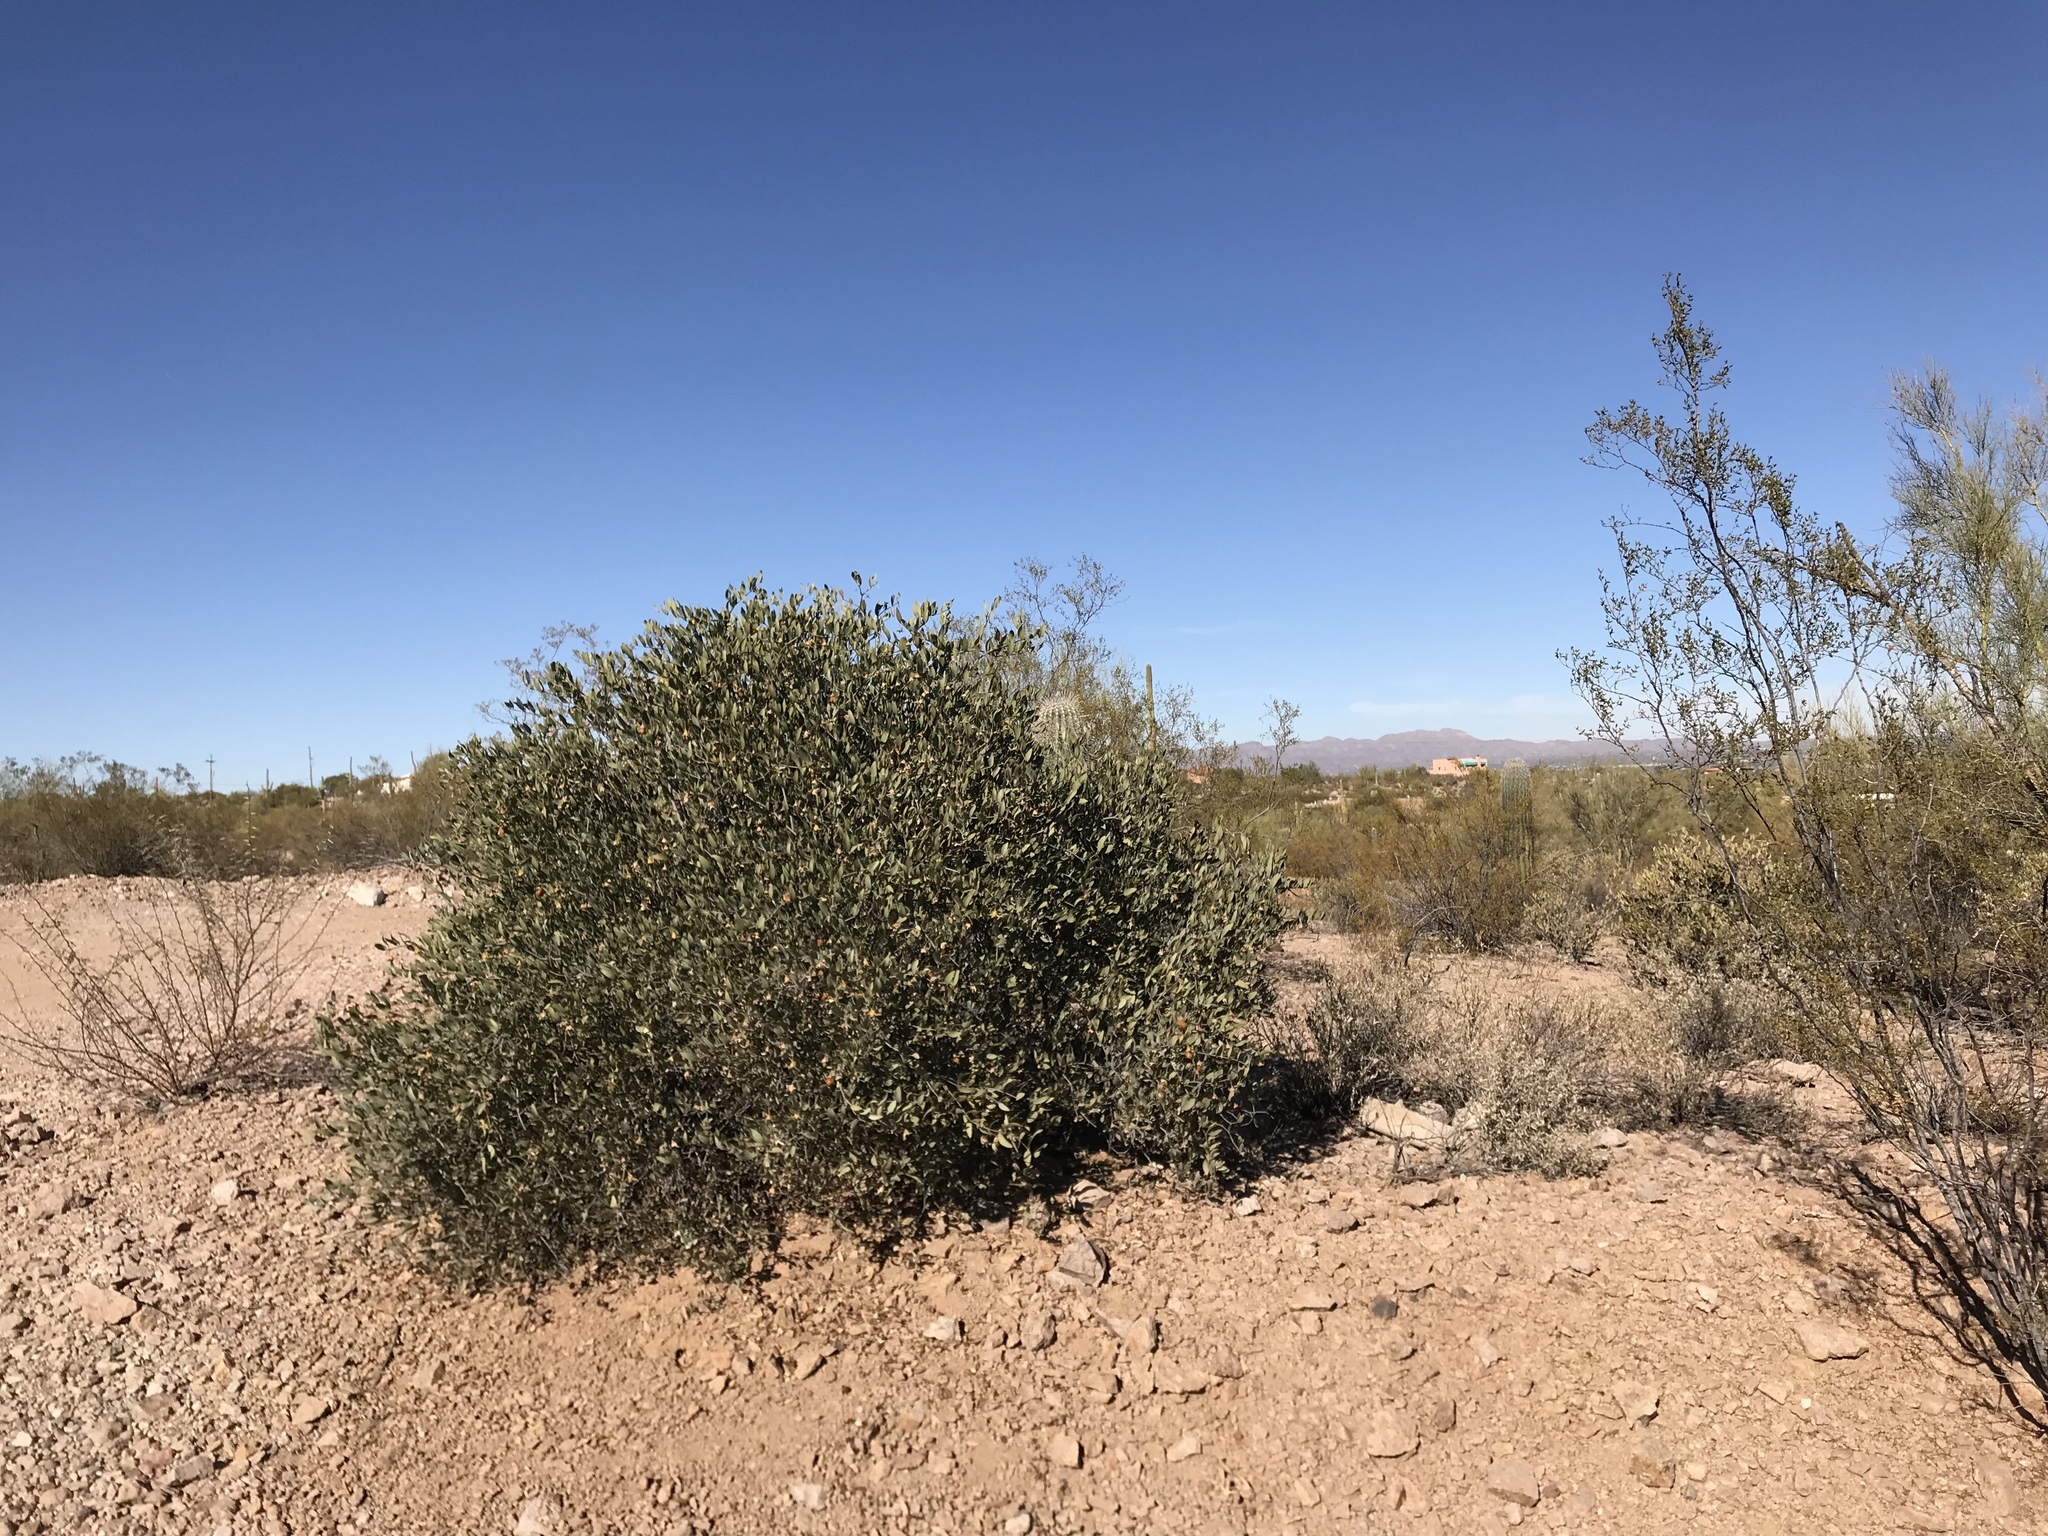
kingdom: Plantae
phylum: Tracheophyta
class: Magnoliopsida
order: Caryophyllales
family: Simmondsiaceae
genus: Simmondsia
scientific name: Simmondsia chinensis
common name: Jojoba
